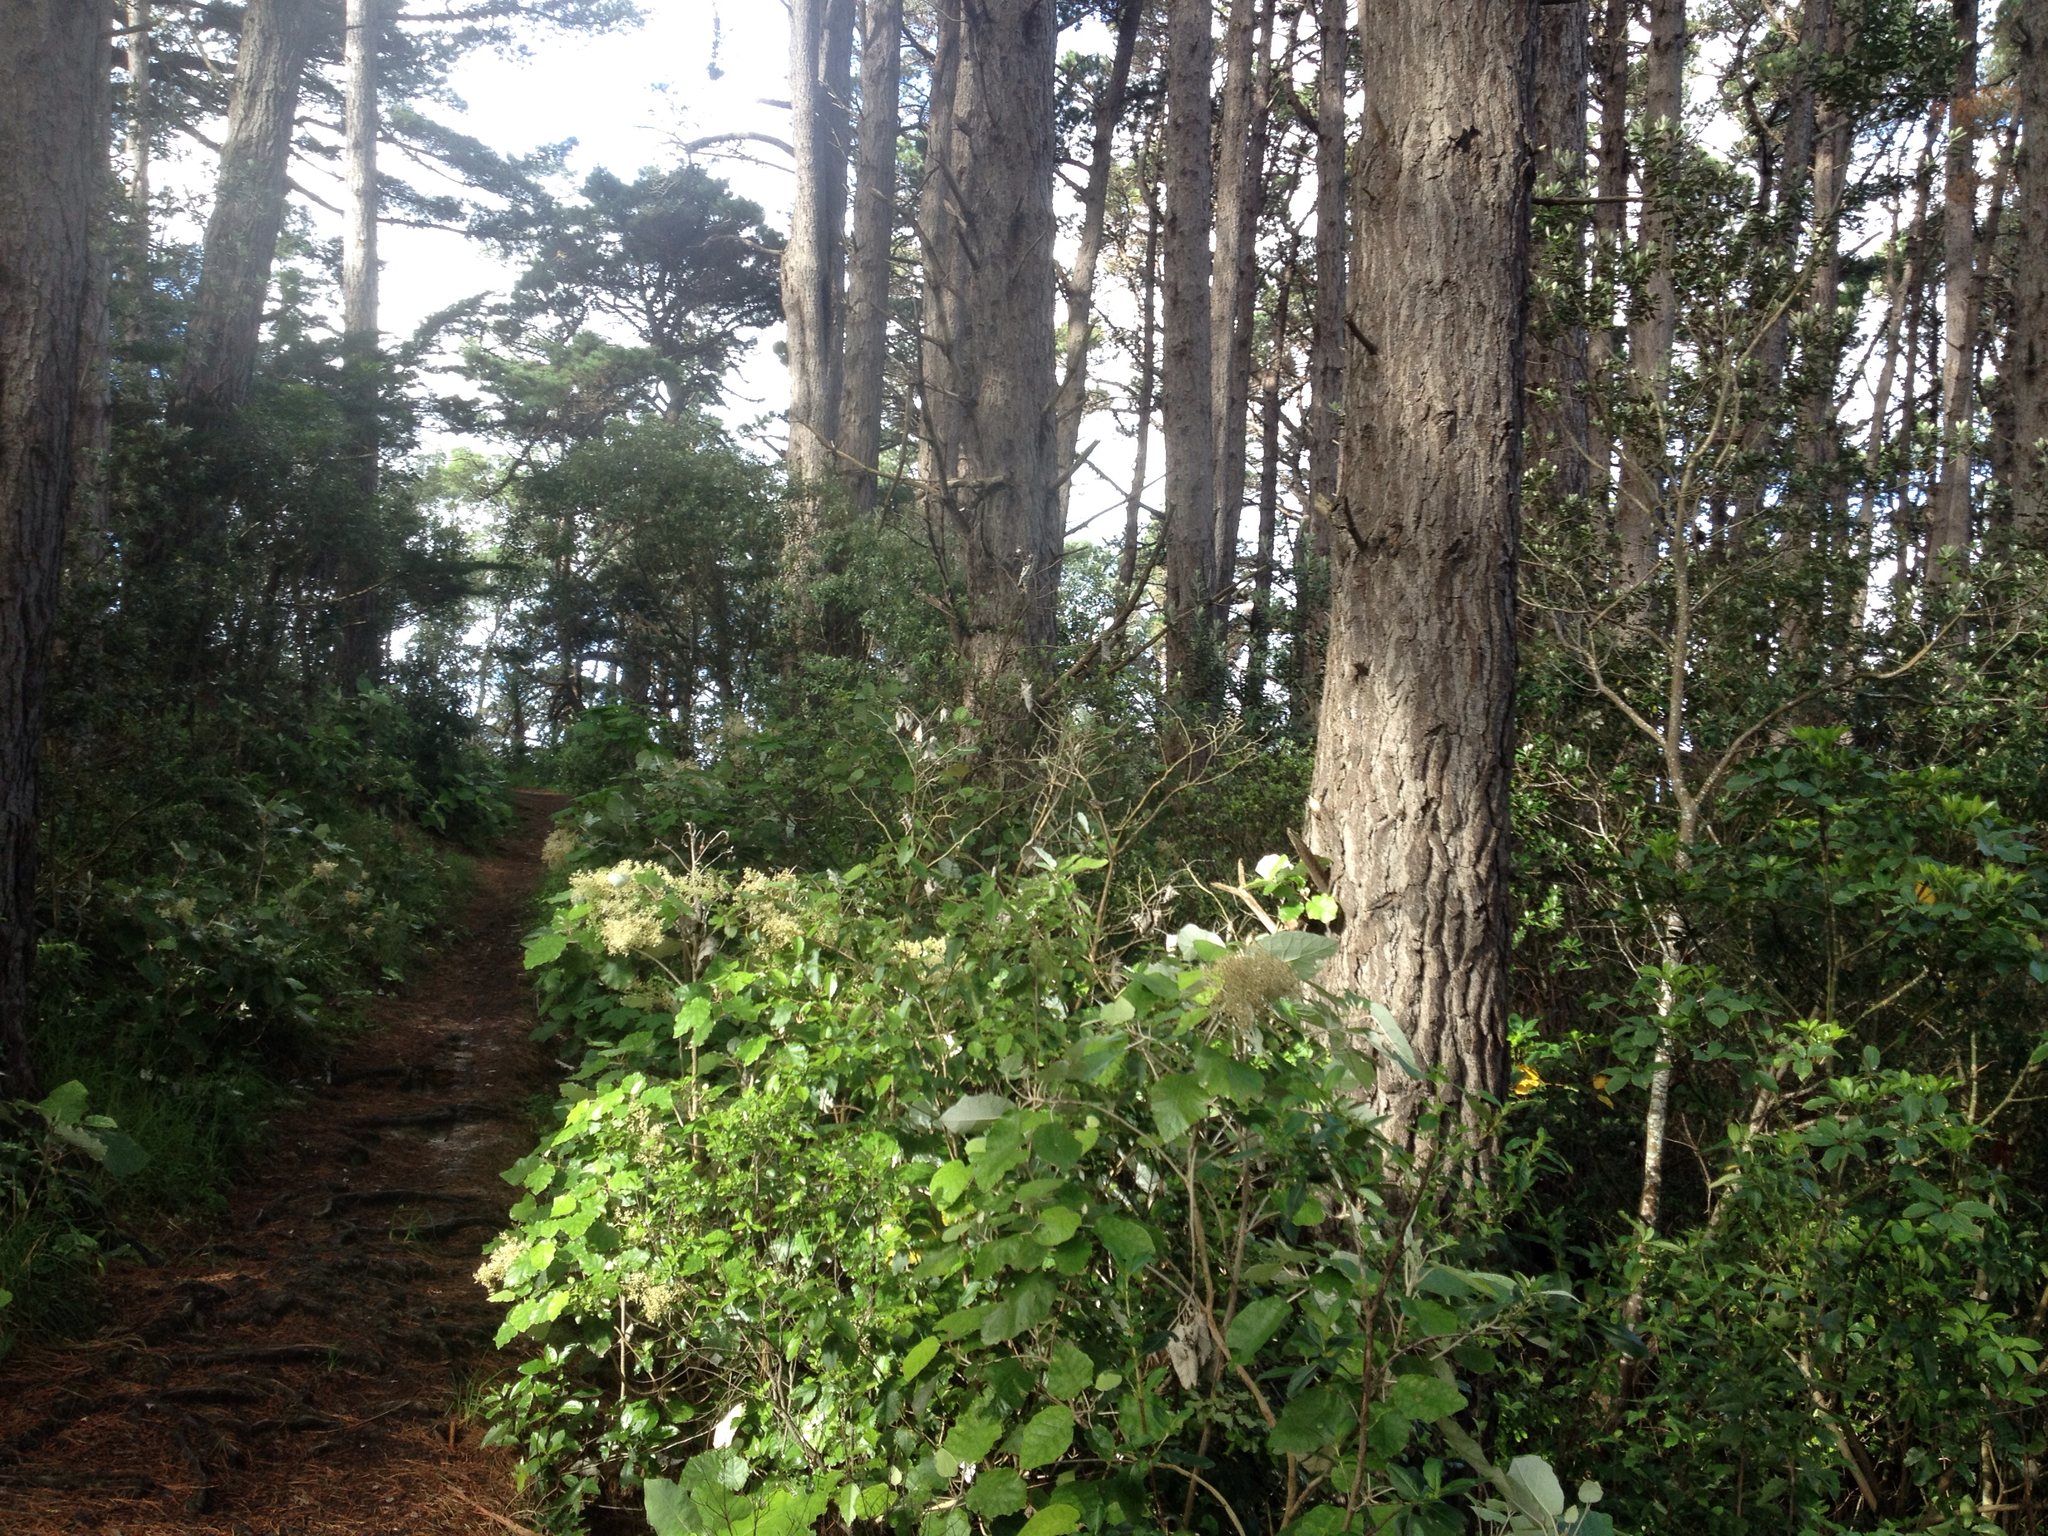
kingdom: Animalia
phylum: Chordata
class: Aves
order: Passeriformes
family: Rhipiduridae
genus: Rhipidura
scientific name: Rhipidura fuliginosa
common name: New zealand fantail
